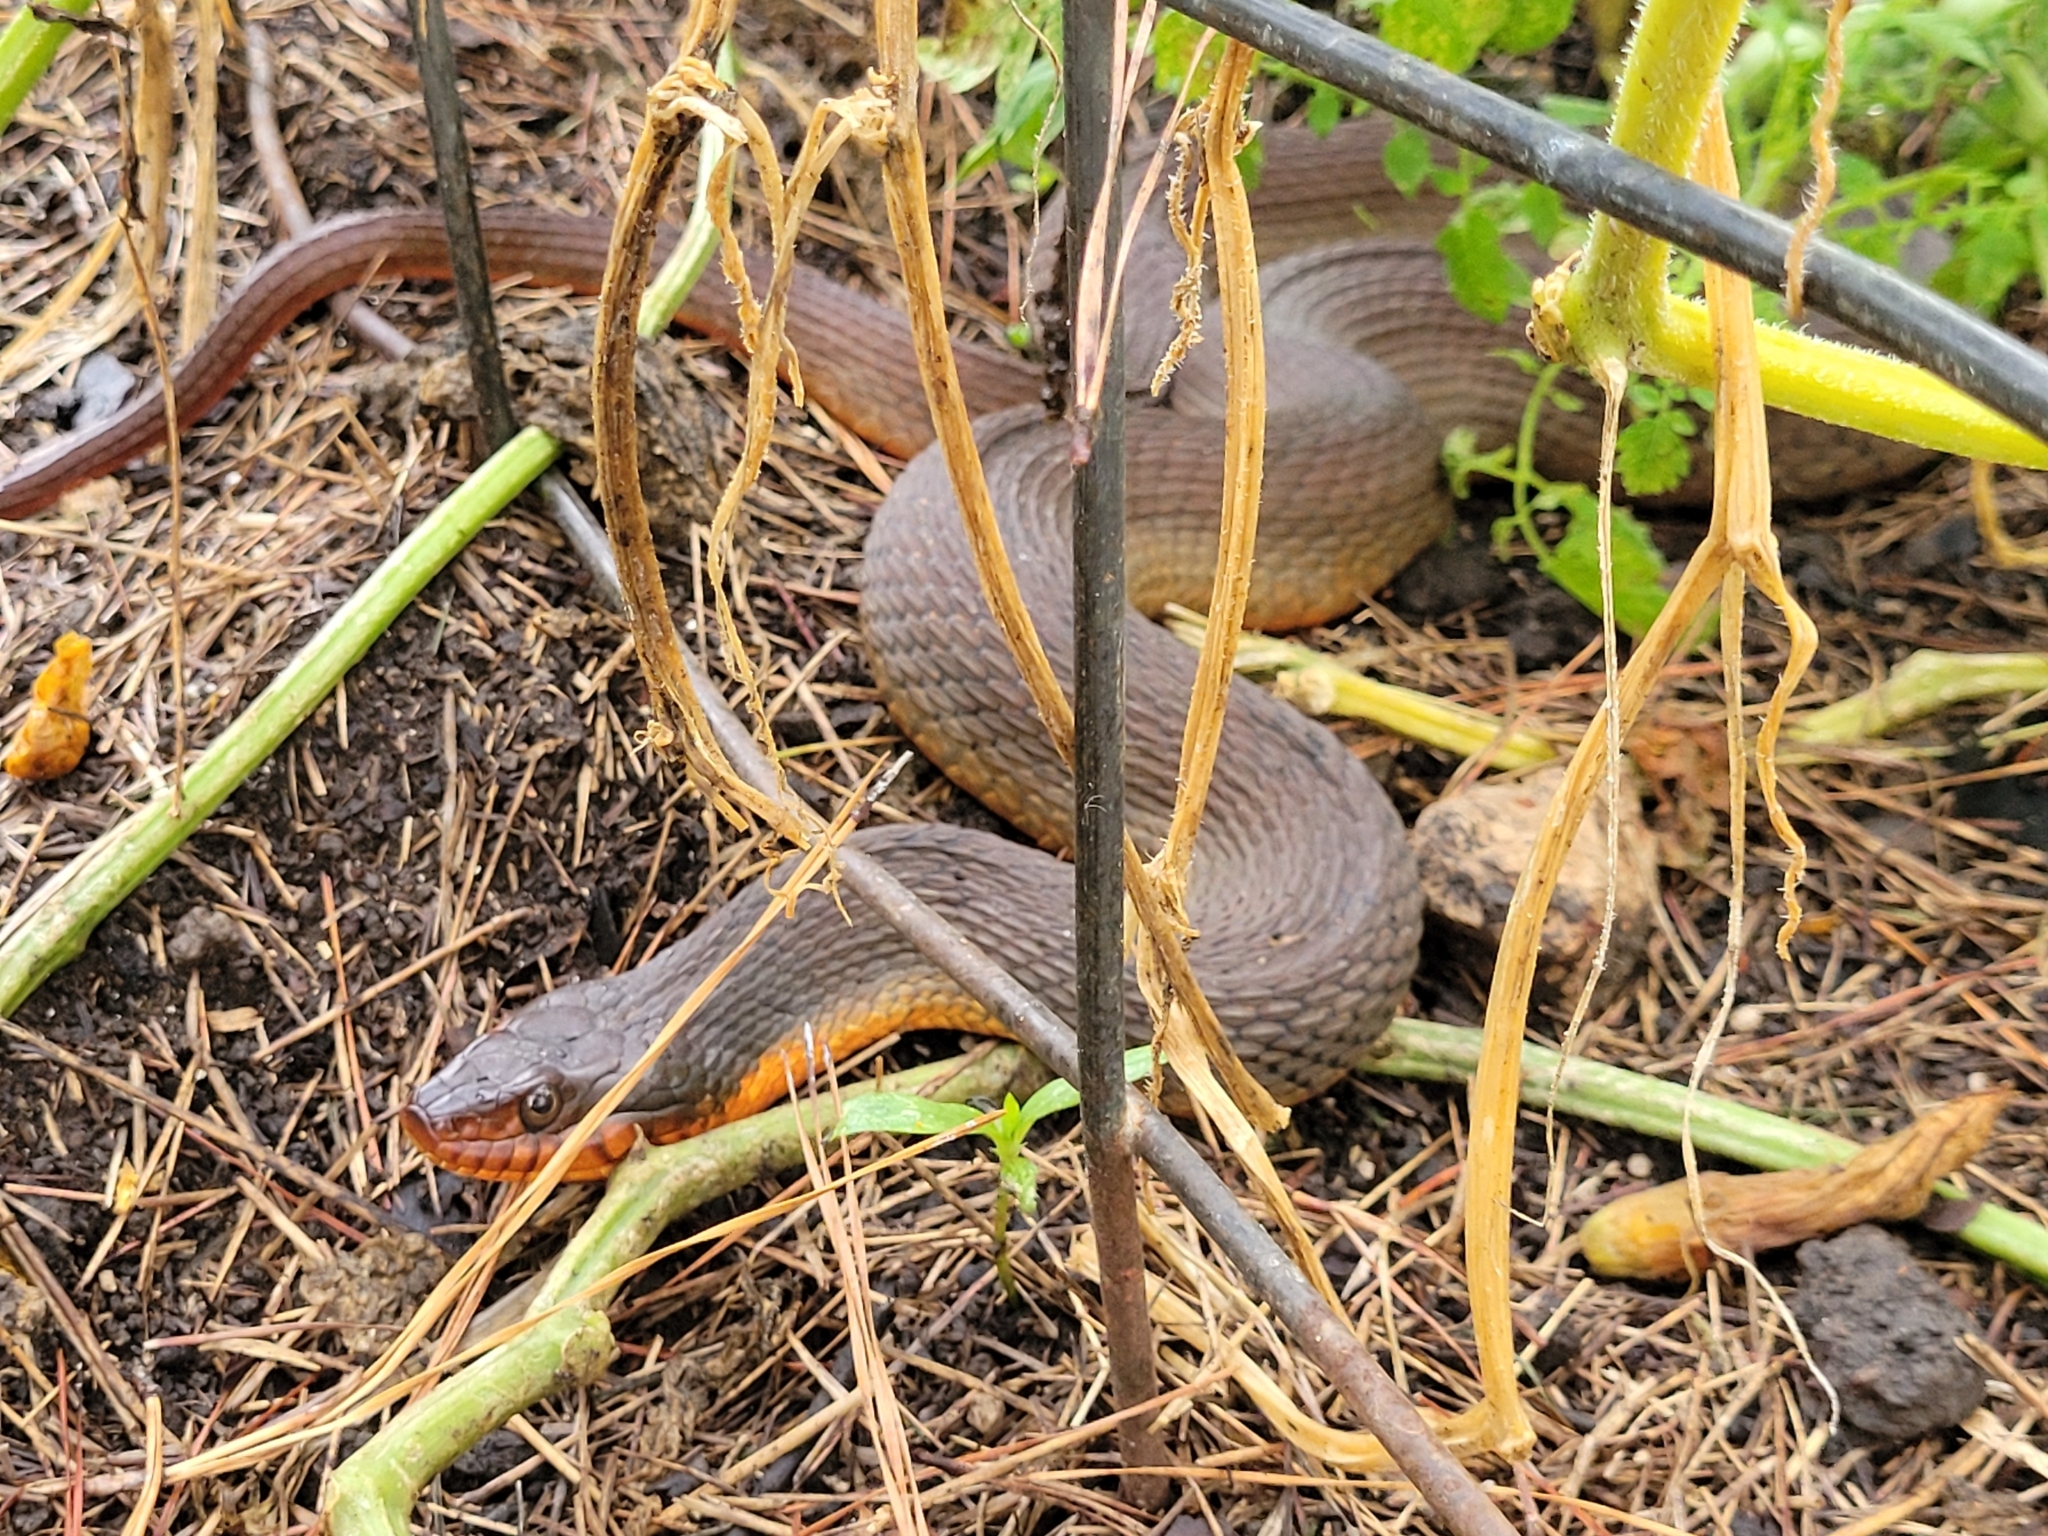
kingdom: Animalia
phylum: Chordata
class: Squamata
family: Colubridae
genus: Nerodia
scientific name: Nerodia erythrogaster
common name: Plainbelly water snake
